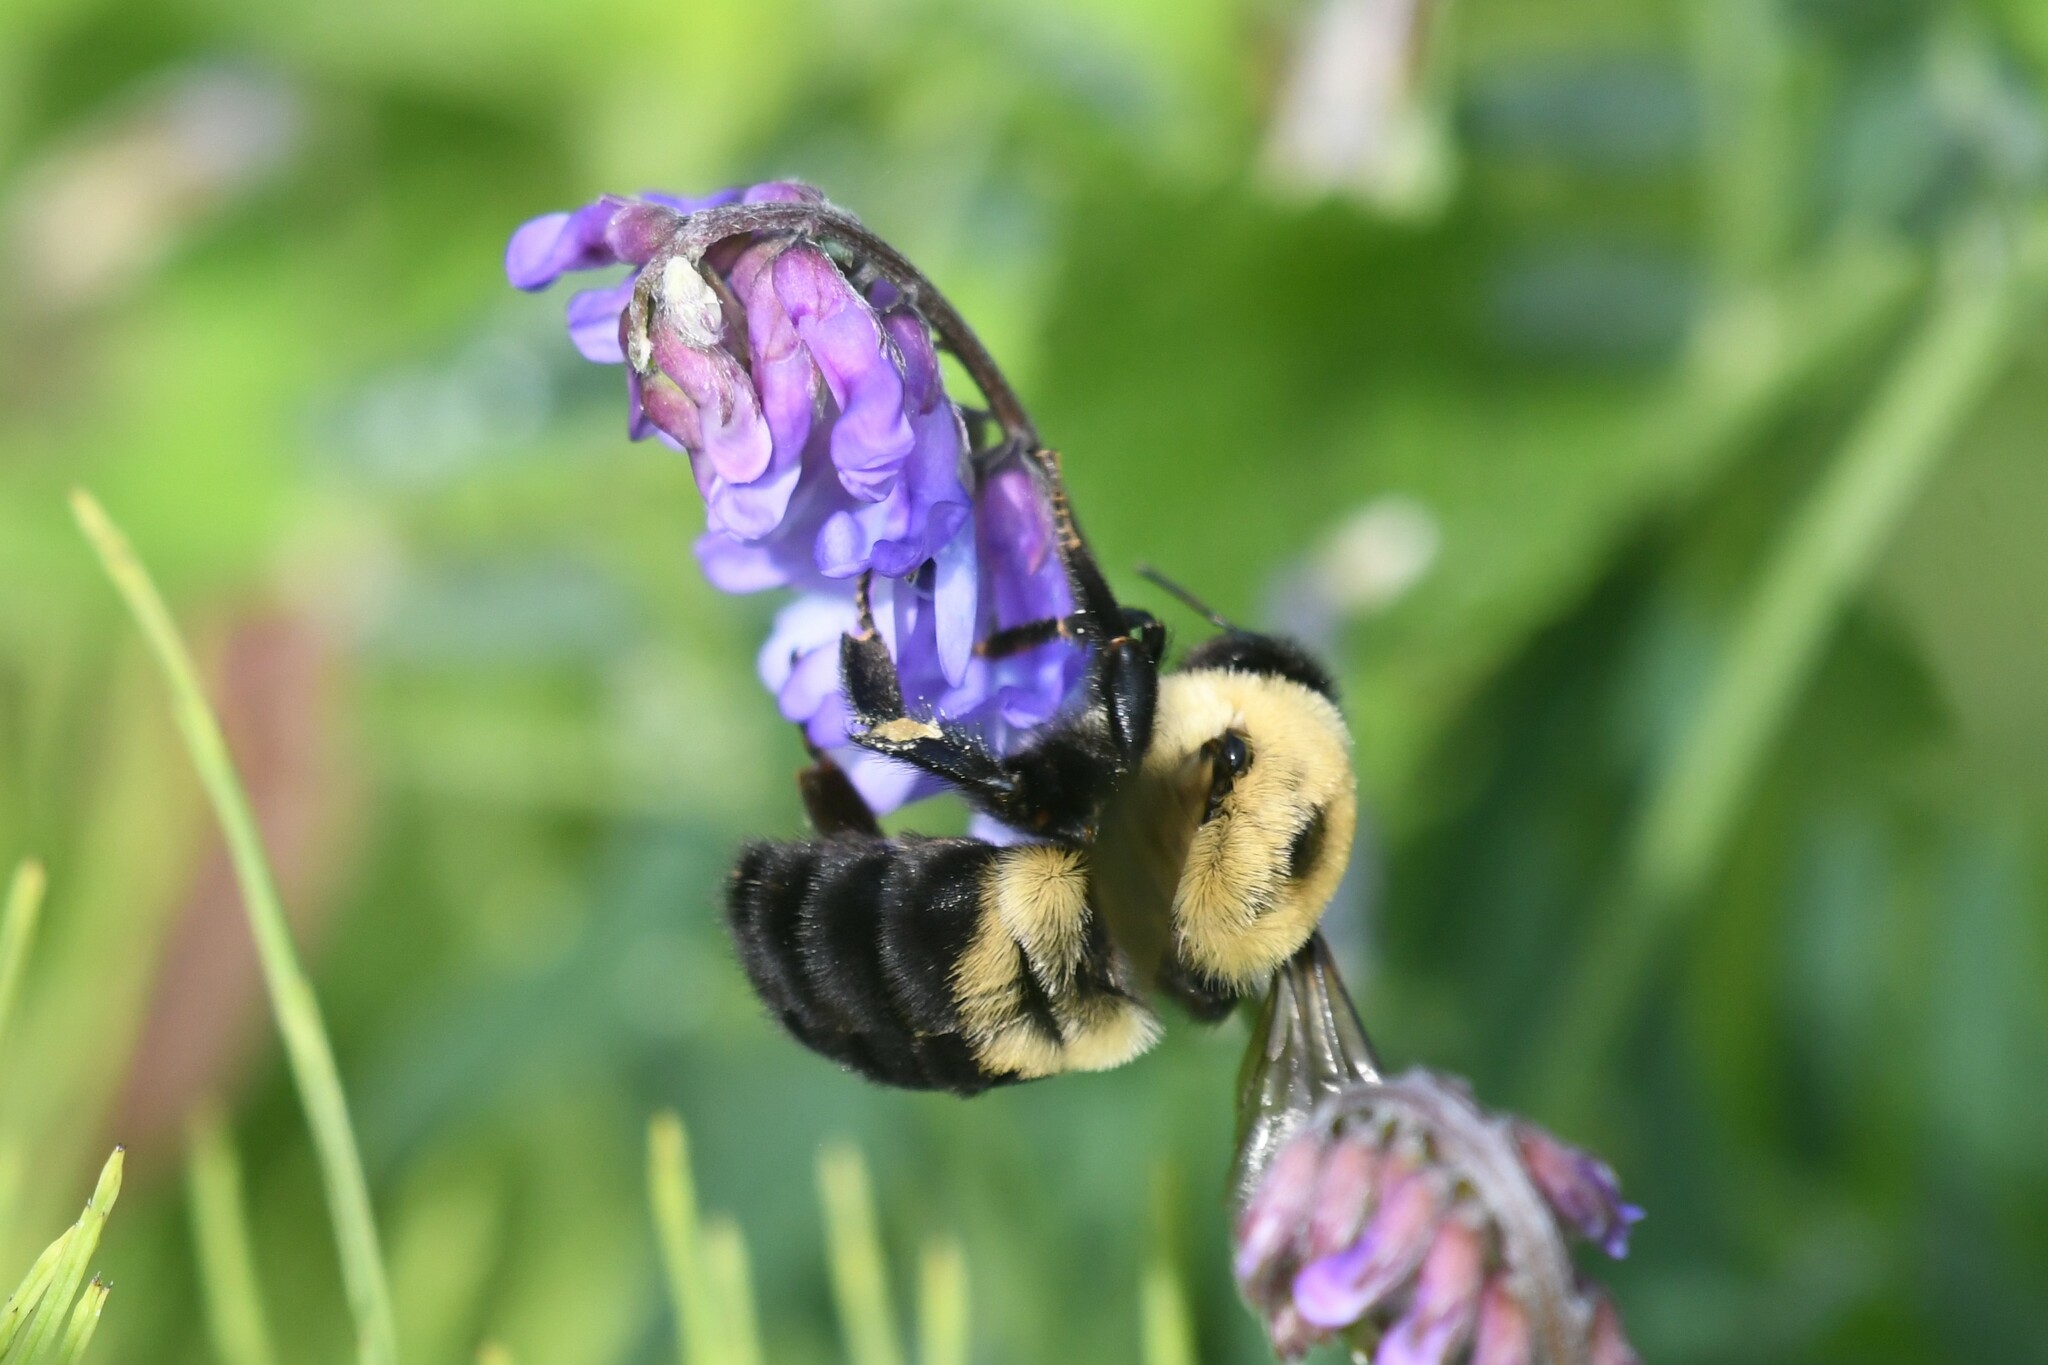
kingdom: Animalia
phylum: Arthropoda
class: Insecta
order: Hymenoptera
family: Apidae
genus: Bombus
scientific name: Bombus griseocollis
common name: Brown-belted bumble bee
